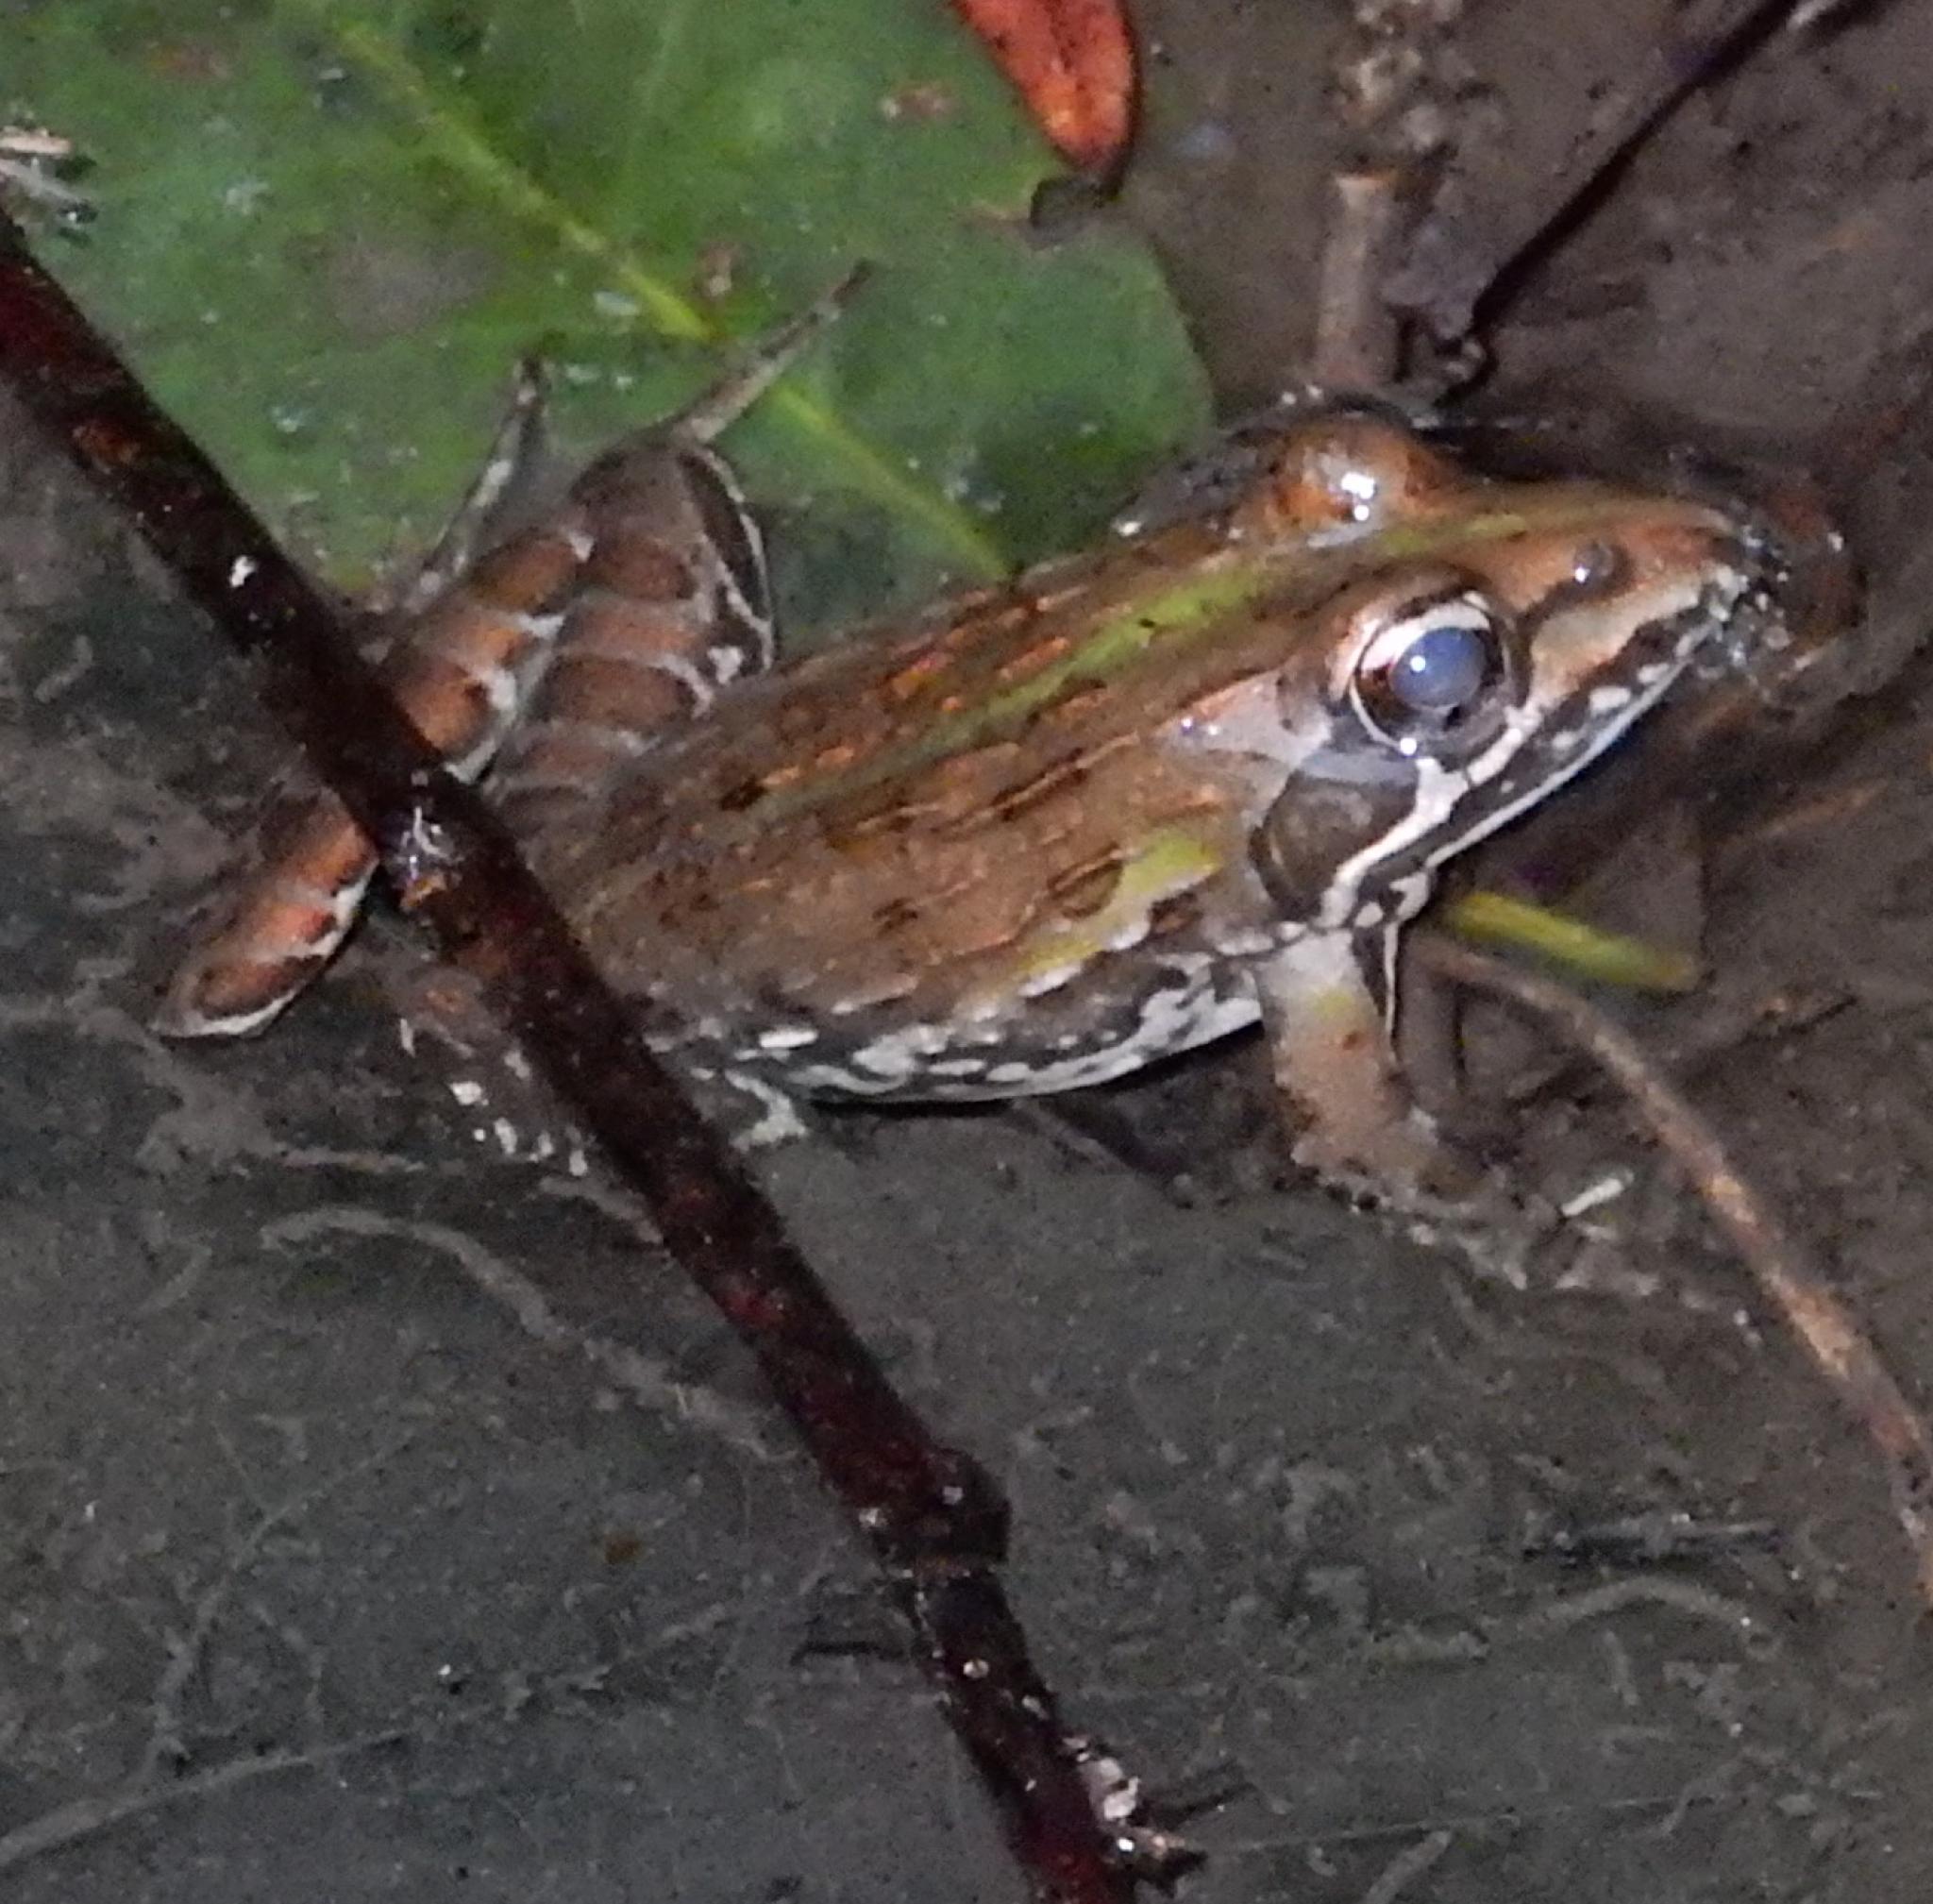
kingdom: Animalia
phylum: Chordata
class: Amphibia
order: Anura
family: Pyxicephalidae
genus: Amietia
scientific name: Amietia delalandii
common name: Delalande's river frog
